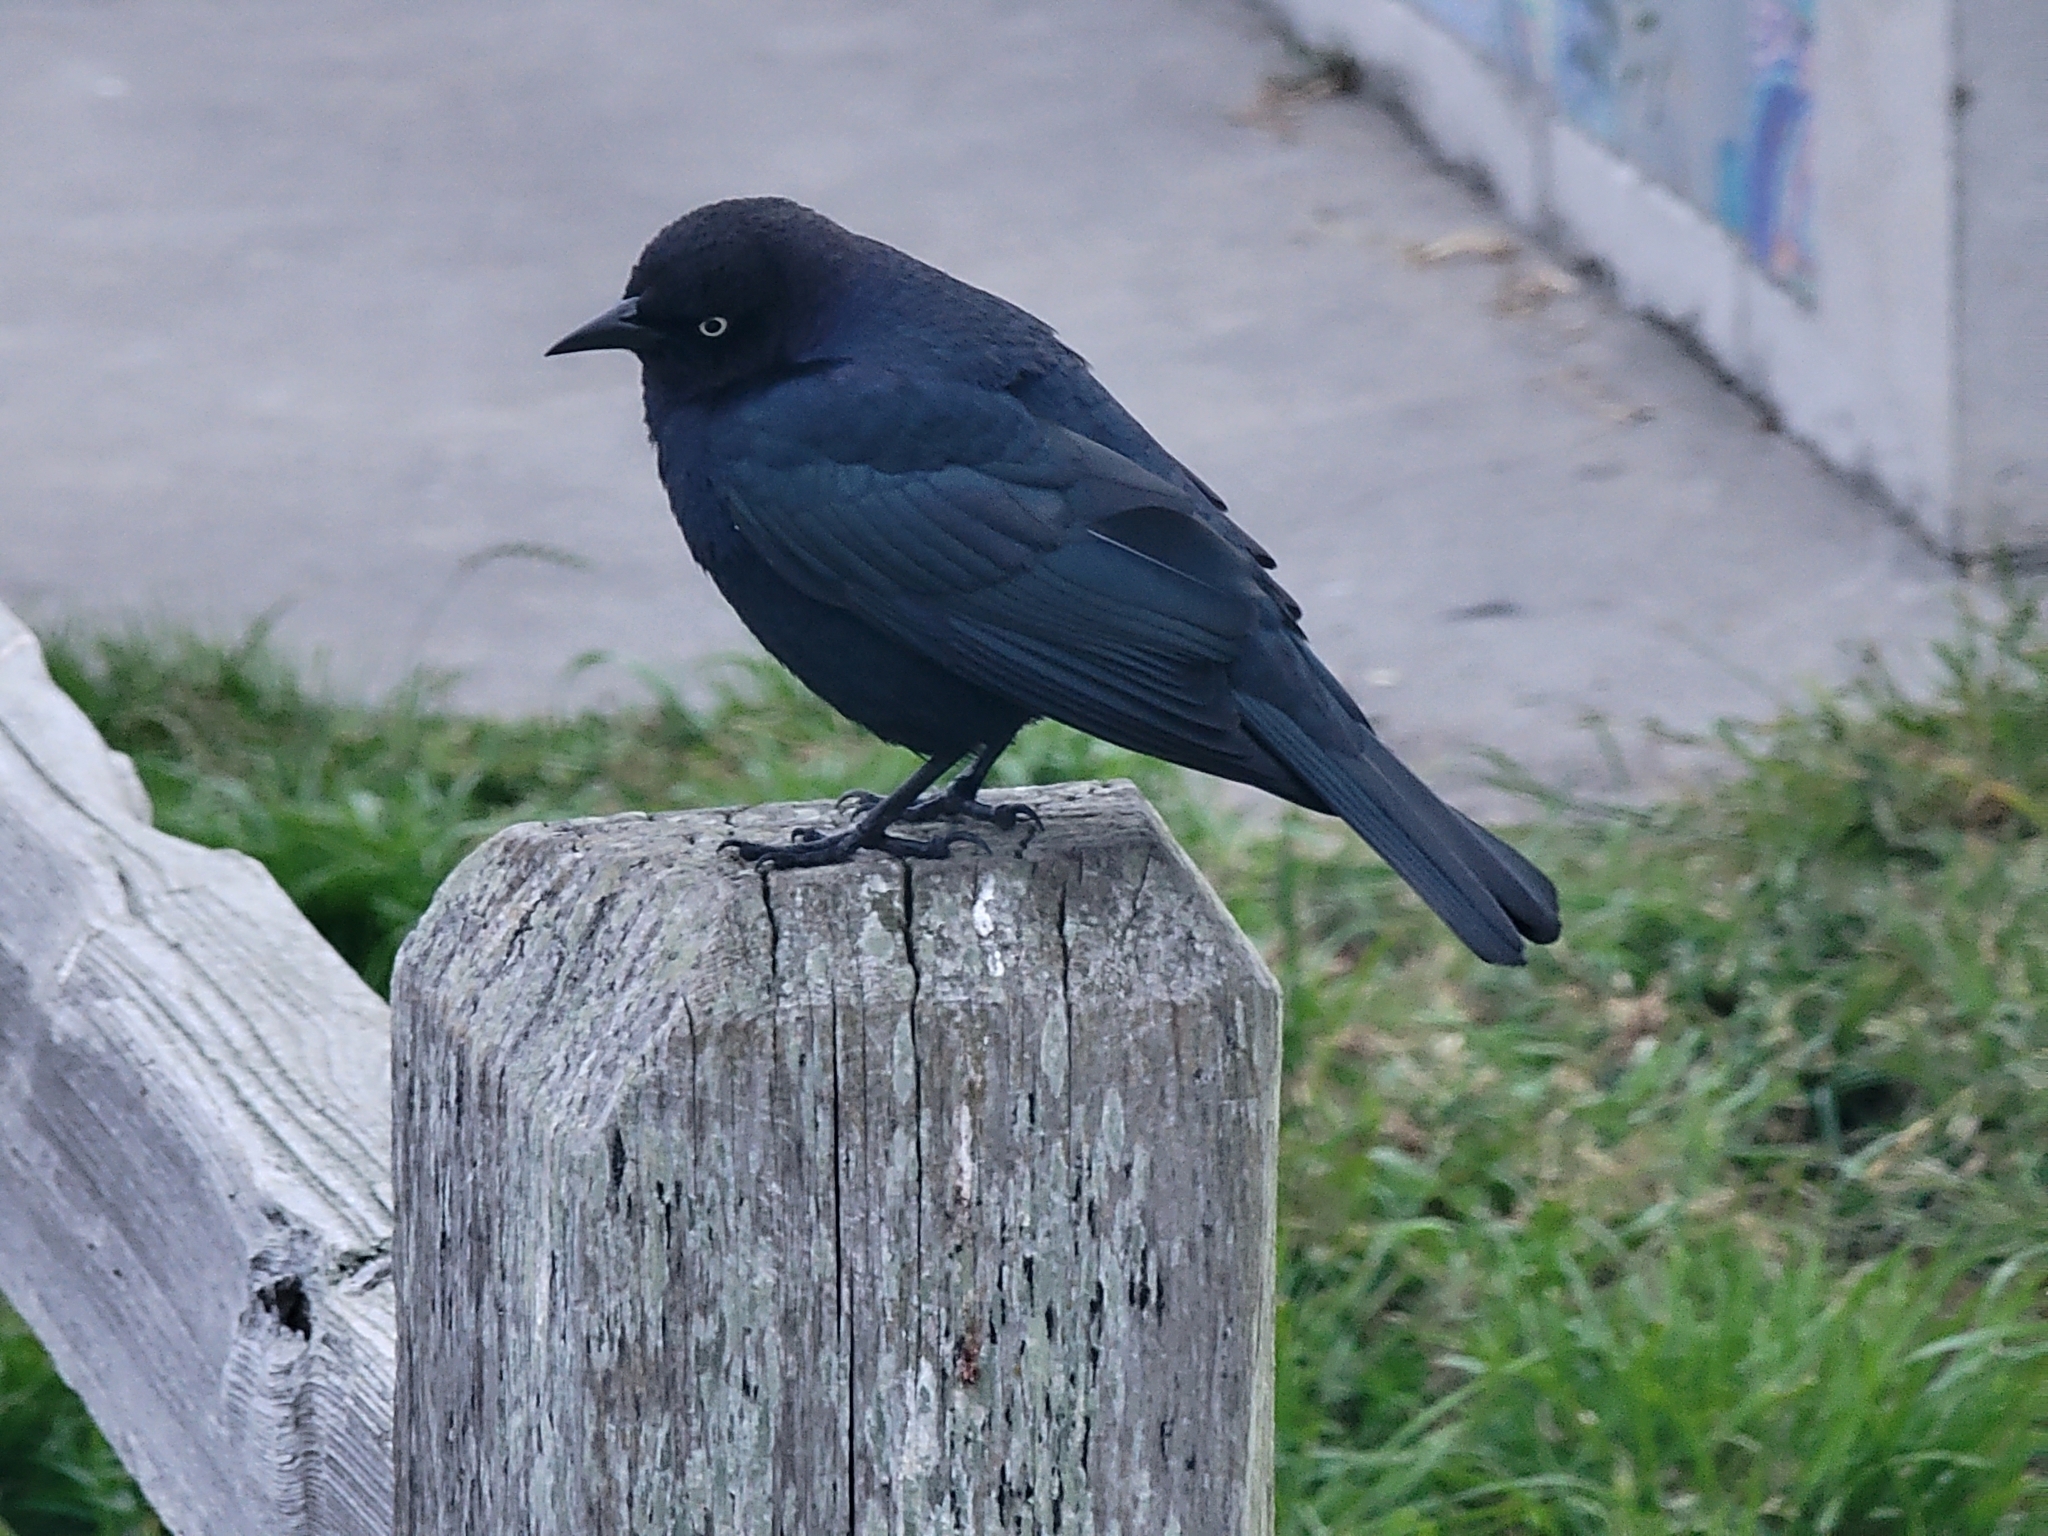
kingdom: Animalia
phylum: Chordata
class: Aves
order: Passeriformes
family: Icteridae
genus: Euphagus
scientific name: Euphagus cyanocephalus
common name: Brewer's blackbird
